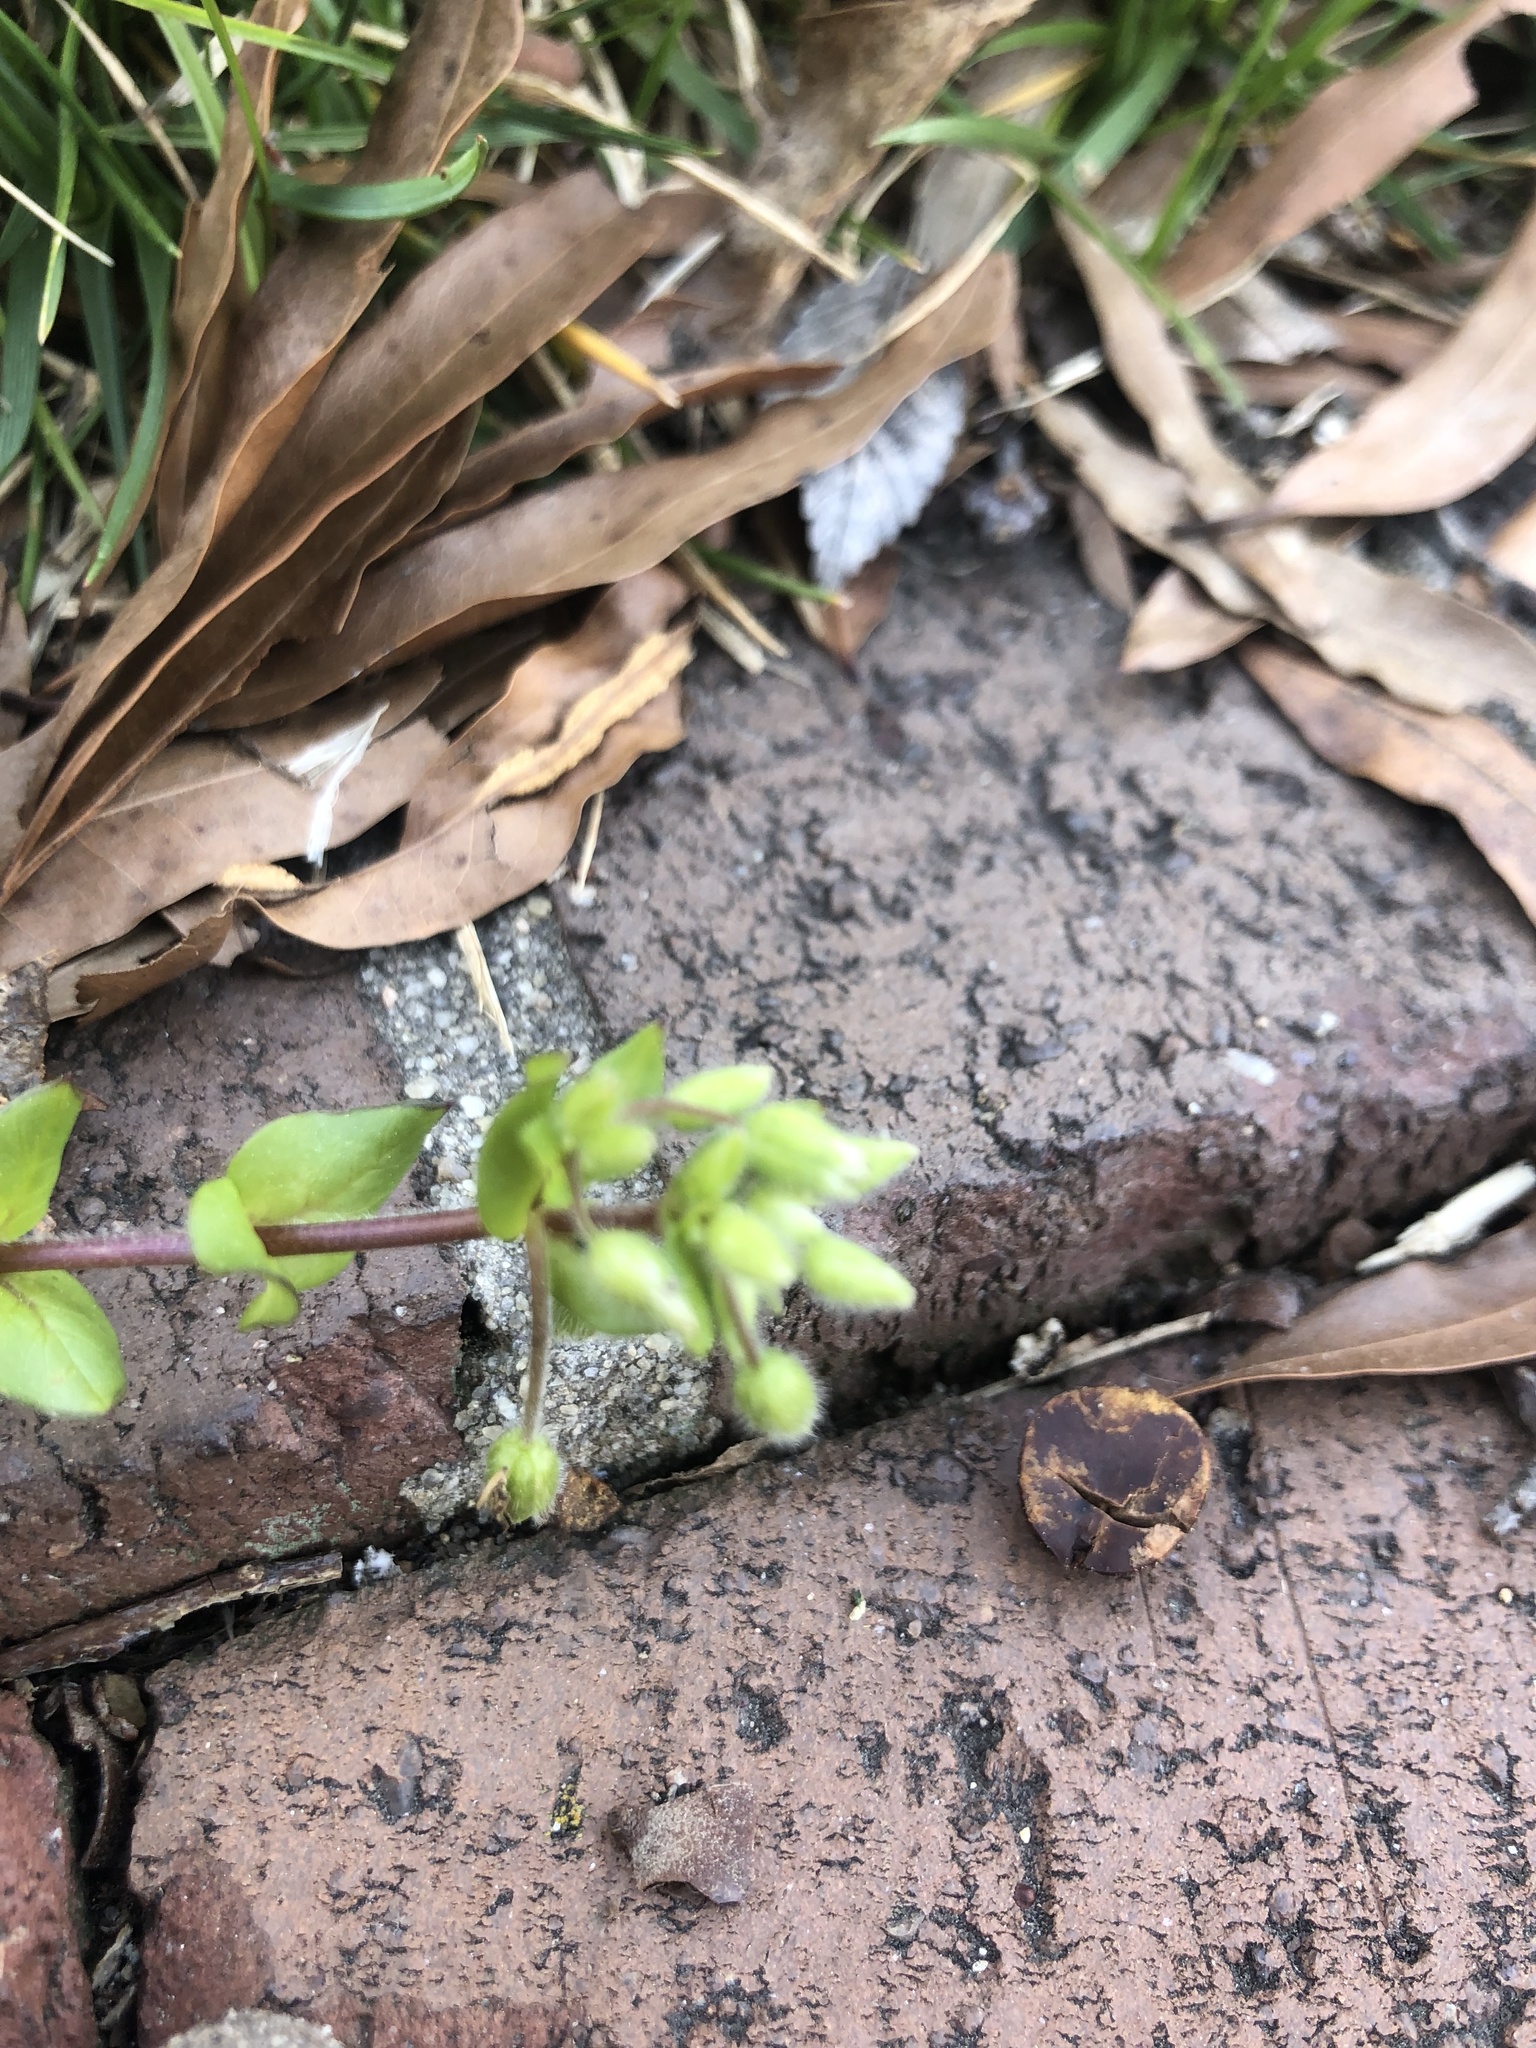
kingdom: Plantae
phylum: Tracheophyta
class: Magnoliopsida
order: Caryophyllales
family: Caryophyllaceae
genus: Stellaria
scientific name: Stellaria media
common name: Common chickweed
